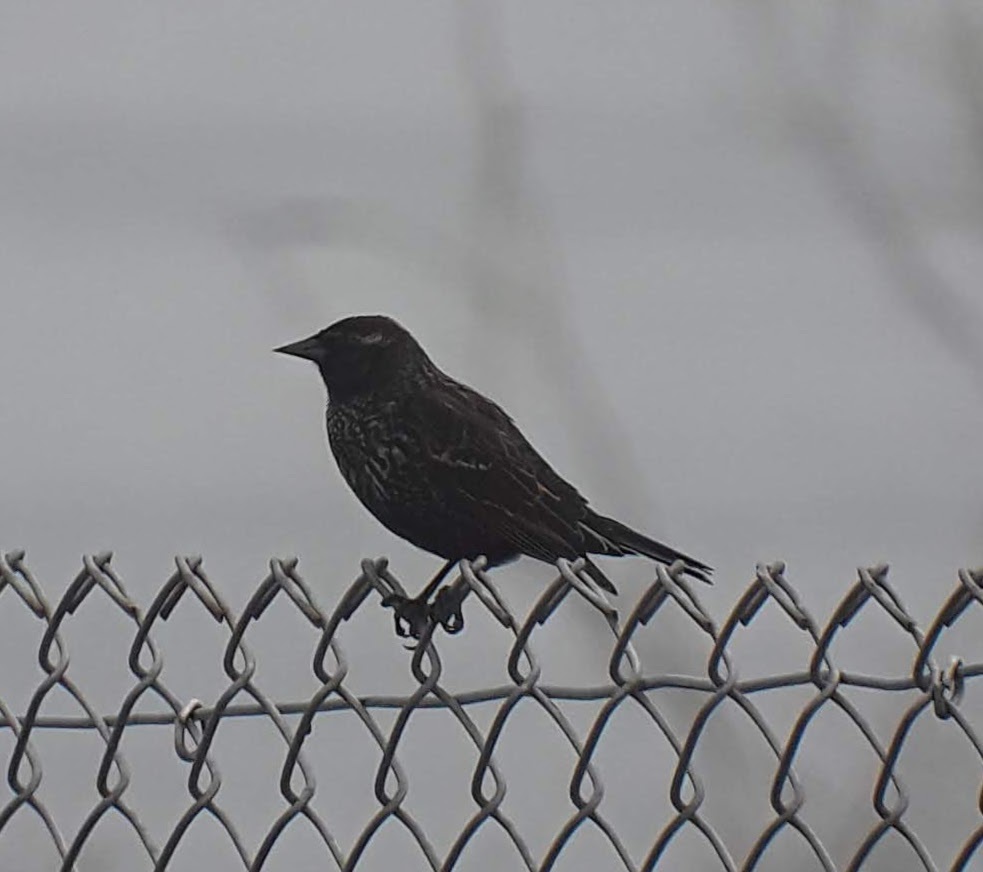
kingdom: Animalia
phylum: Chordata
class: Aves
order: Passeriformes
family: Icteridae
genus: Agelaius
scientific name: Agelaius phoeniceus
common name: Red-winged blackbird
